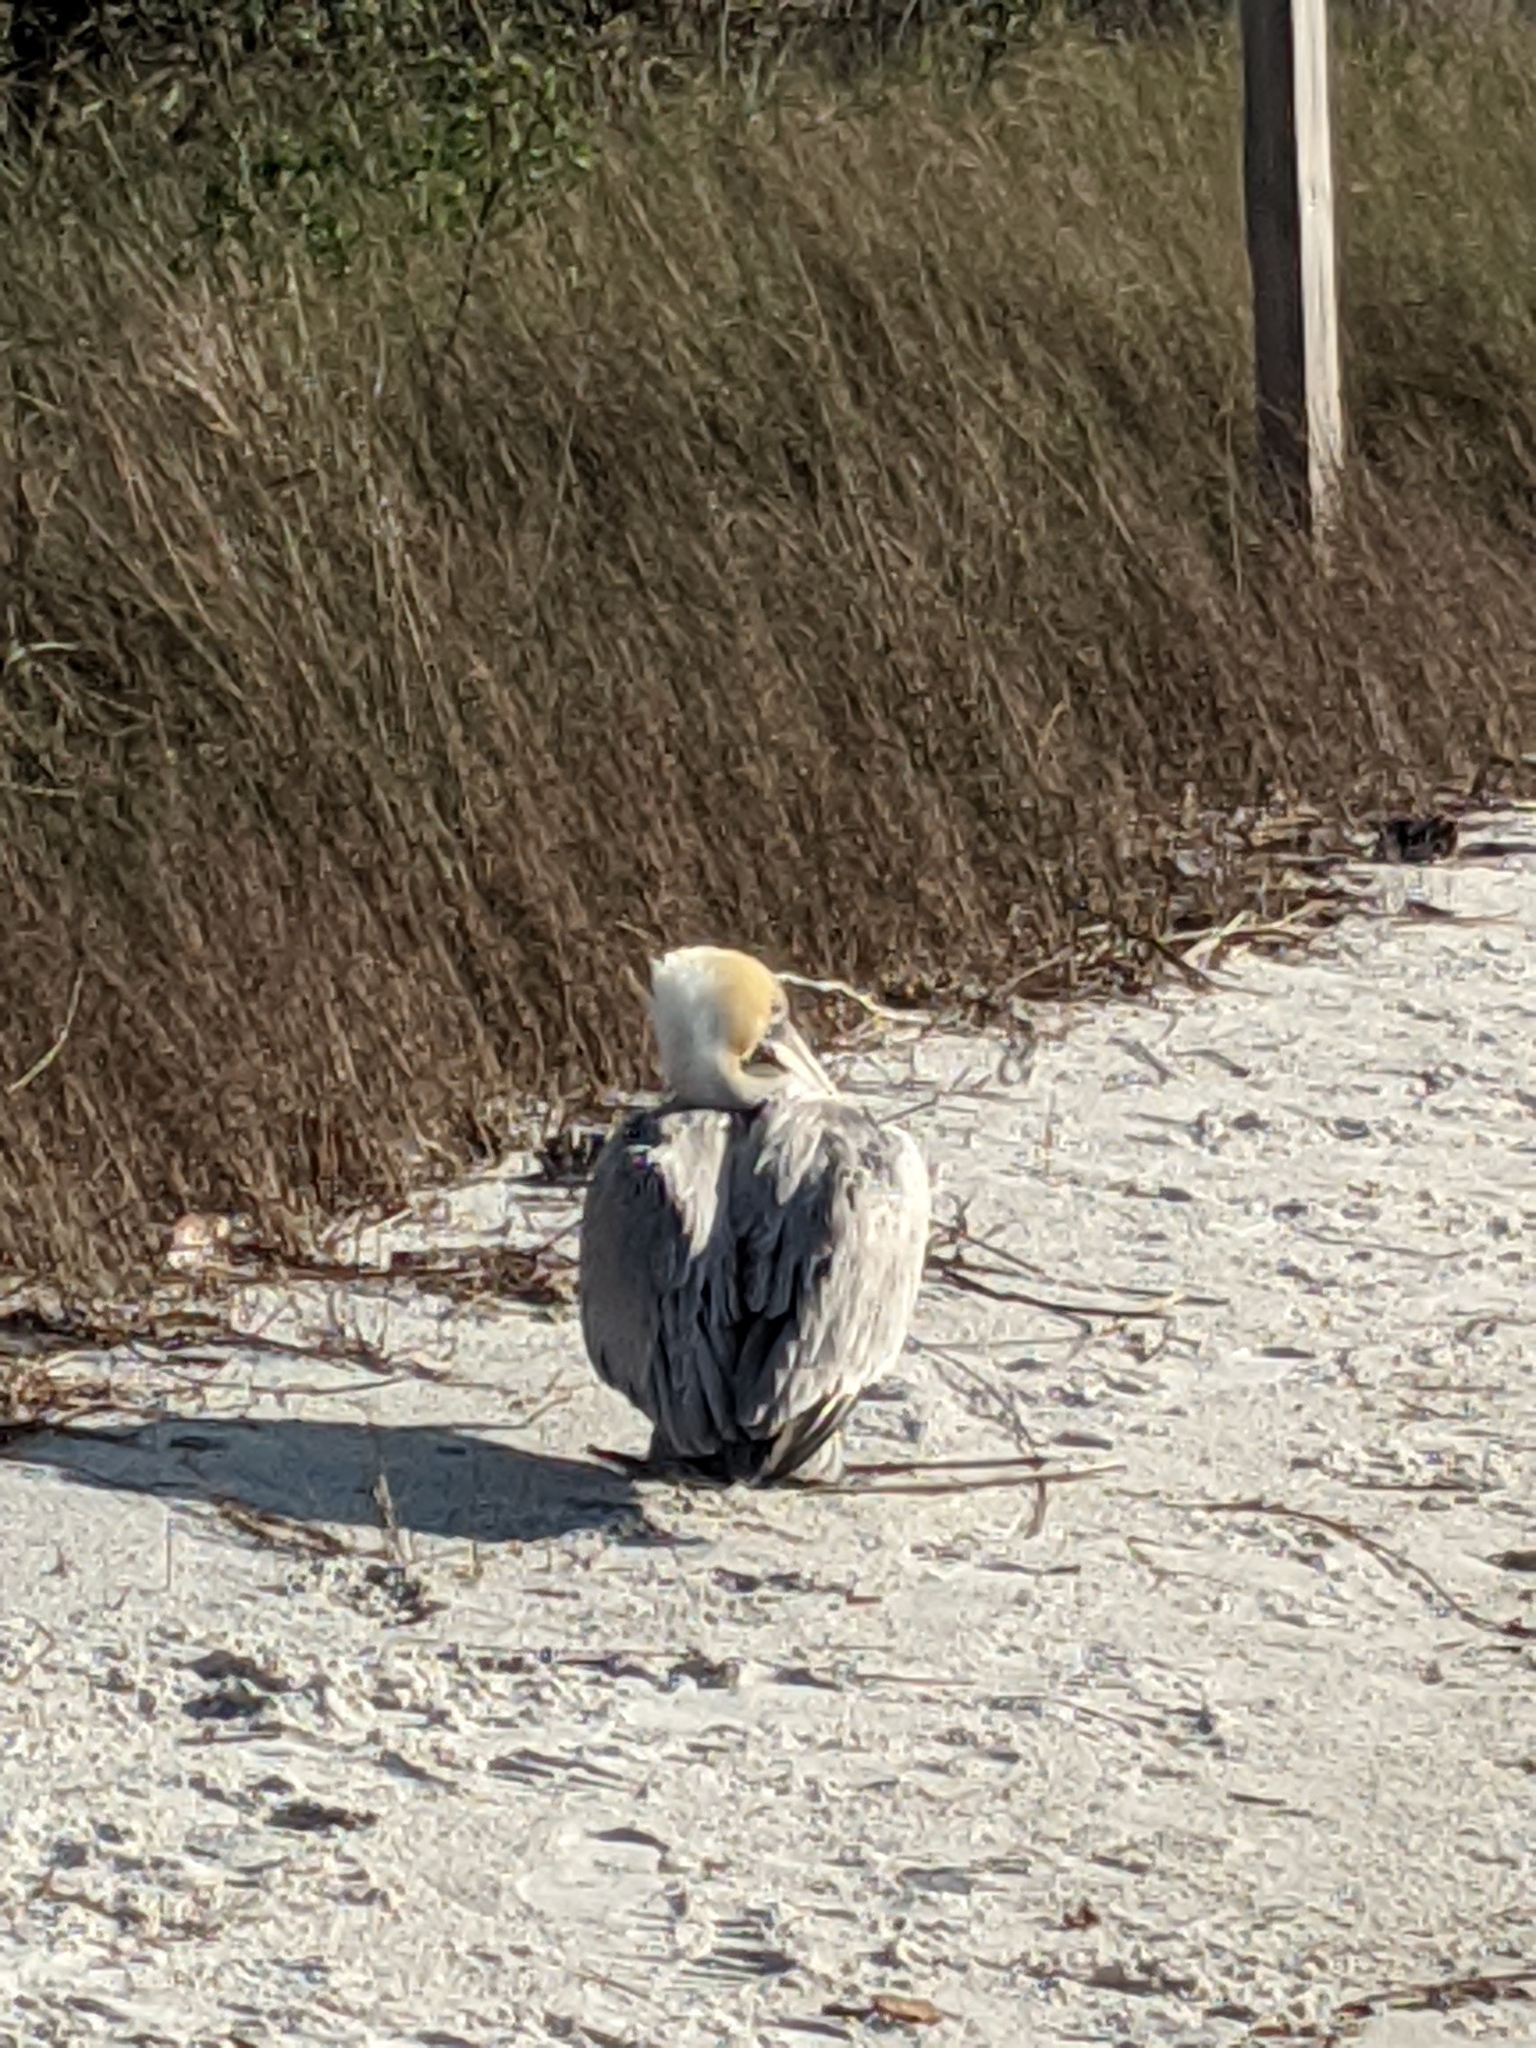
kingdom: Animalia
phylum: Chordata
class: Aves
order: Pelecaniformes
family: Pelecanidae
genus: Pelecanus
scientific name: Pelecanus occidentalis
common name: Brown pelican
